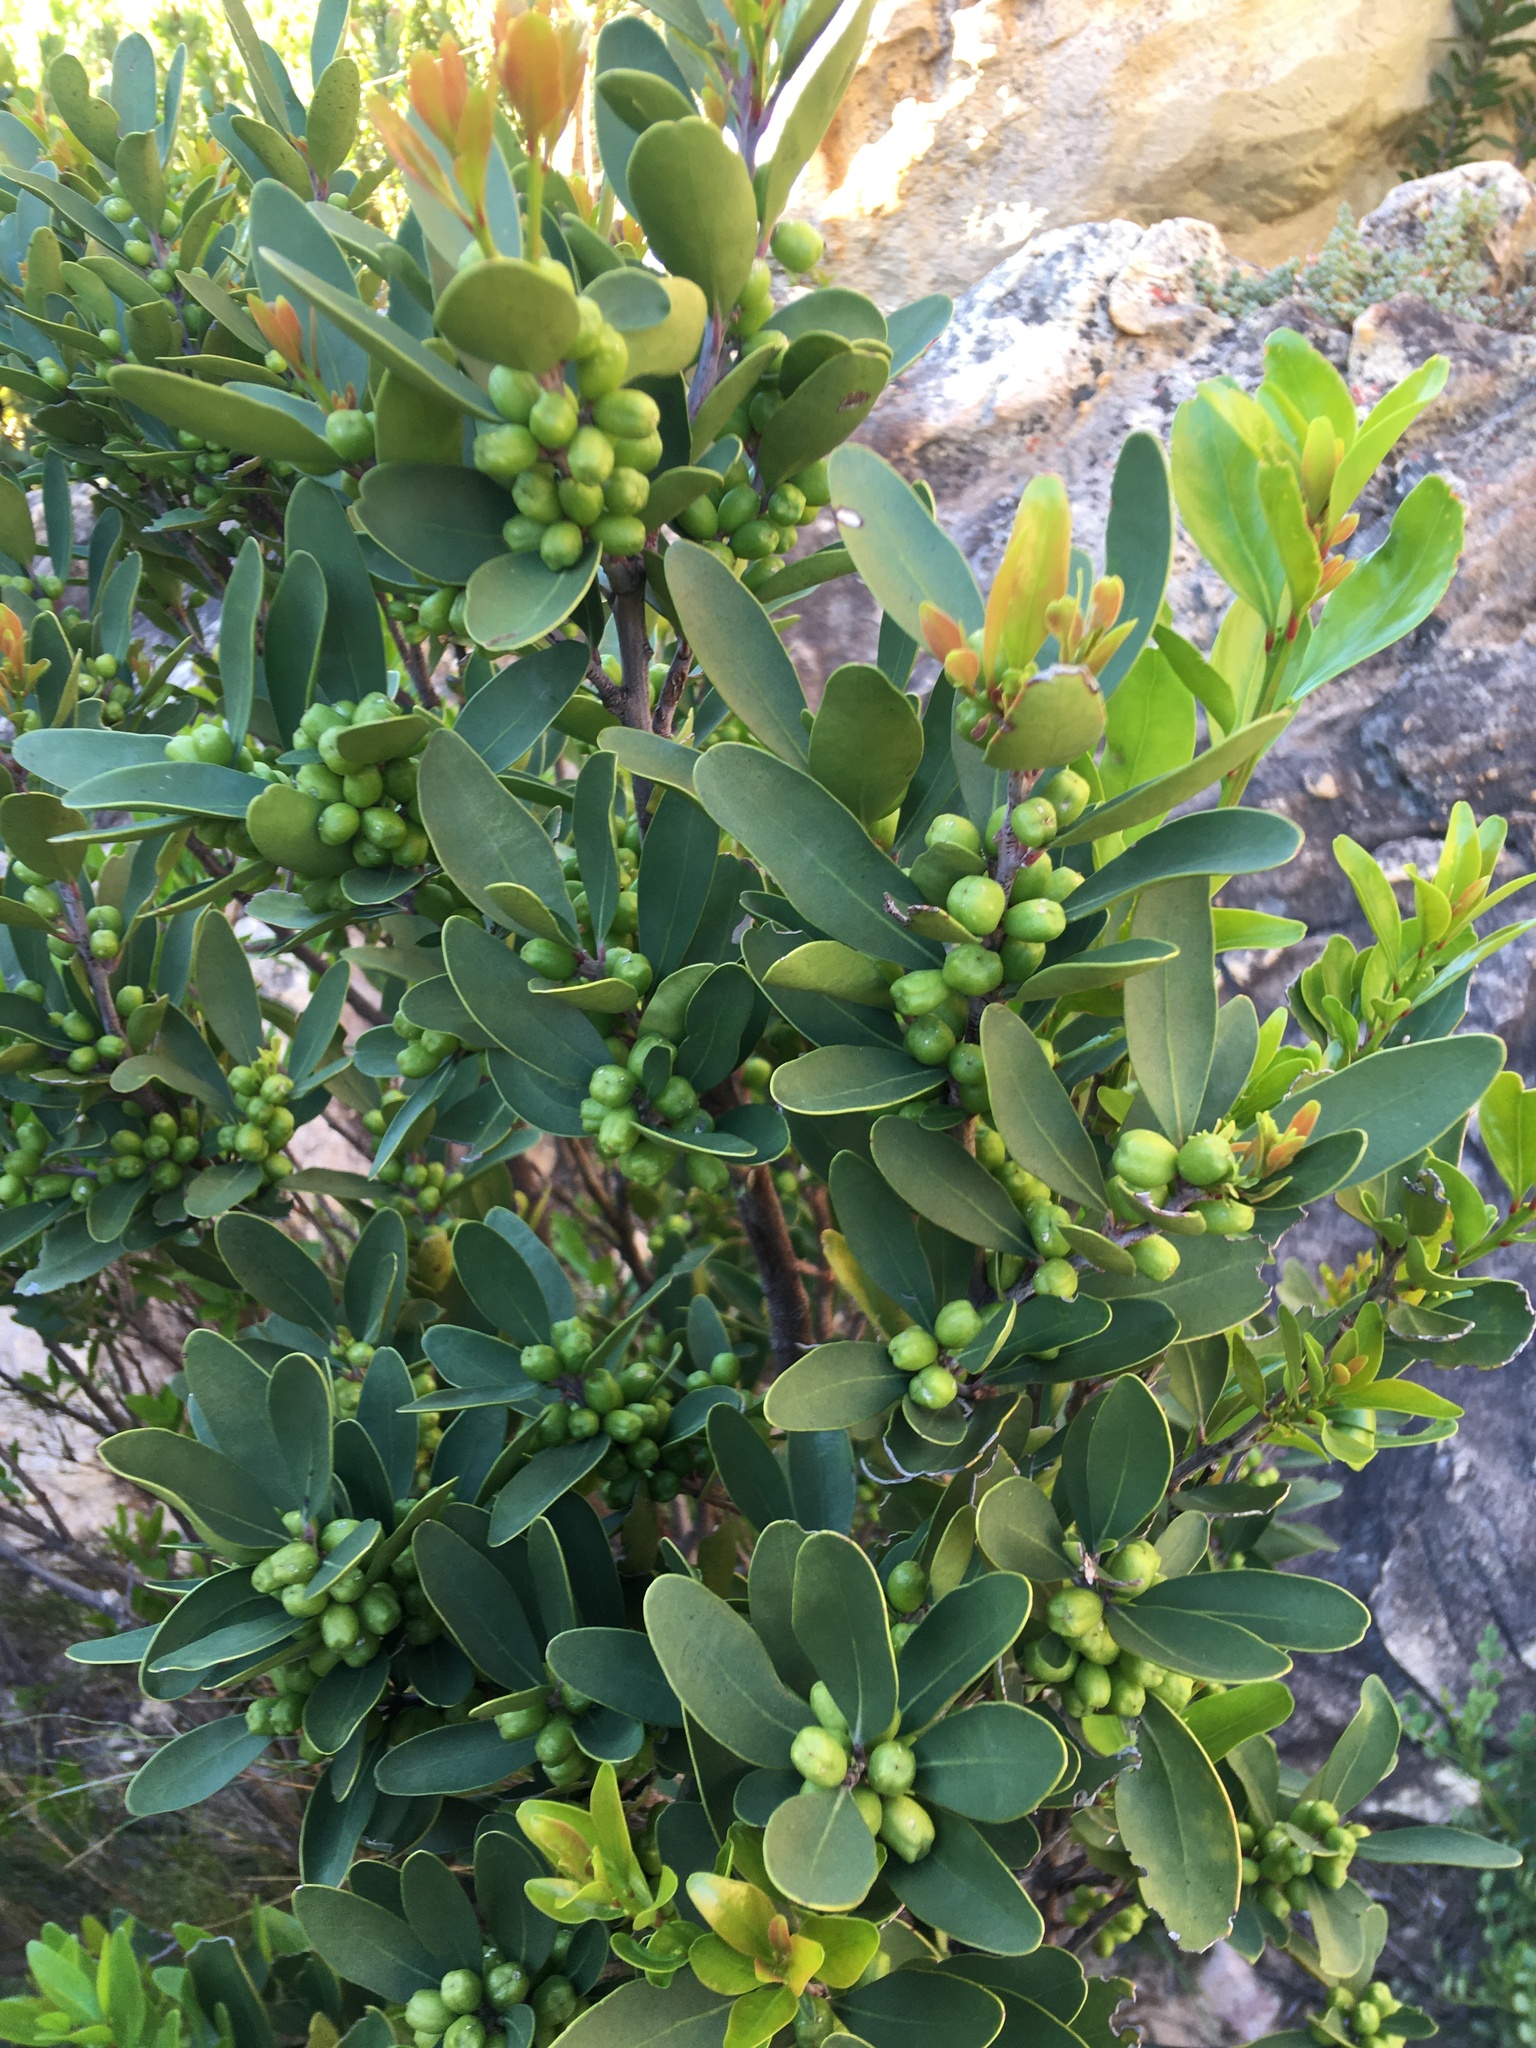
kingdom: Plantae
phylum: Tracheophyta
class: Magnoliopsida
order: Celastrales
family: Celastraceae
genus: Gymnosporia
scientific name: Gymnosporia laurina
